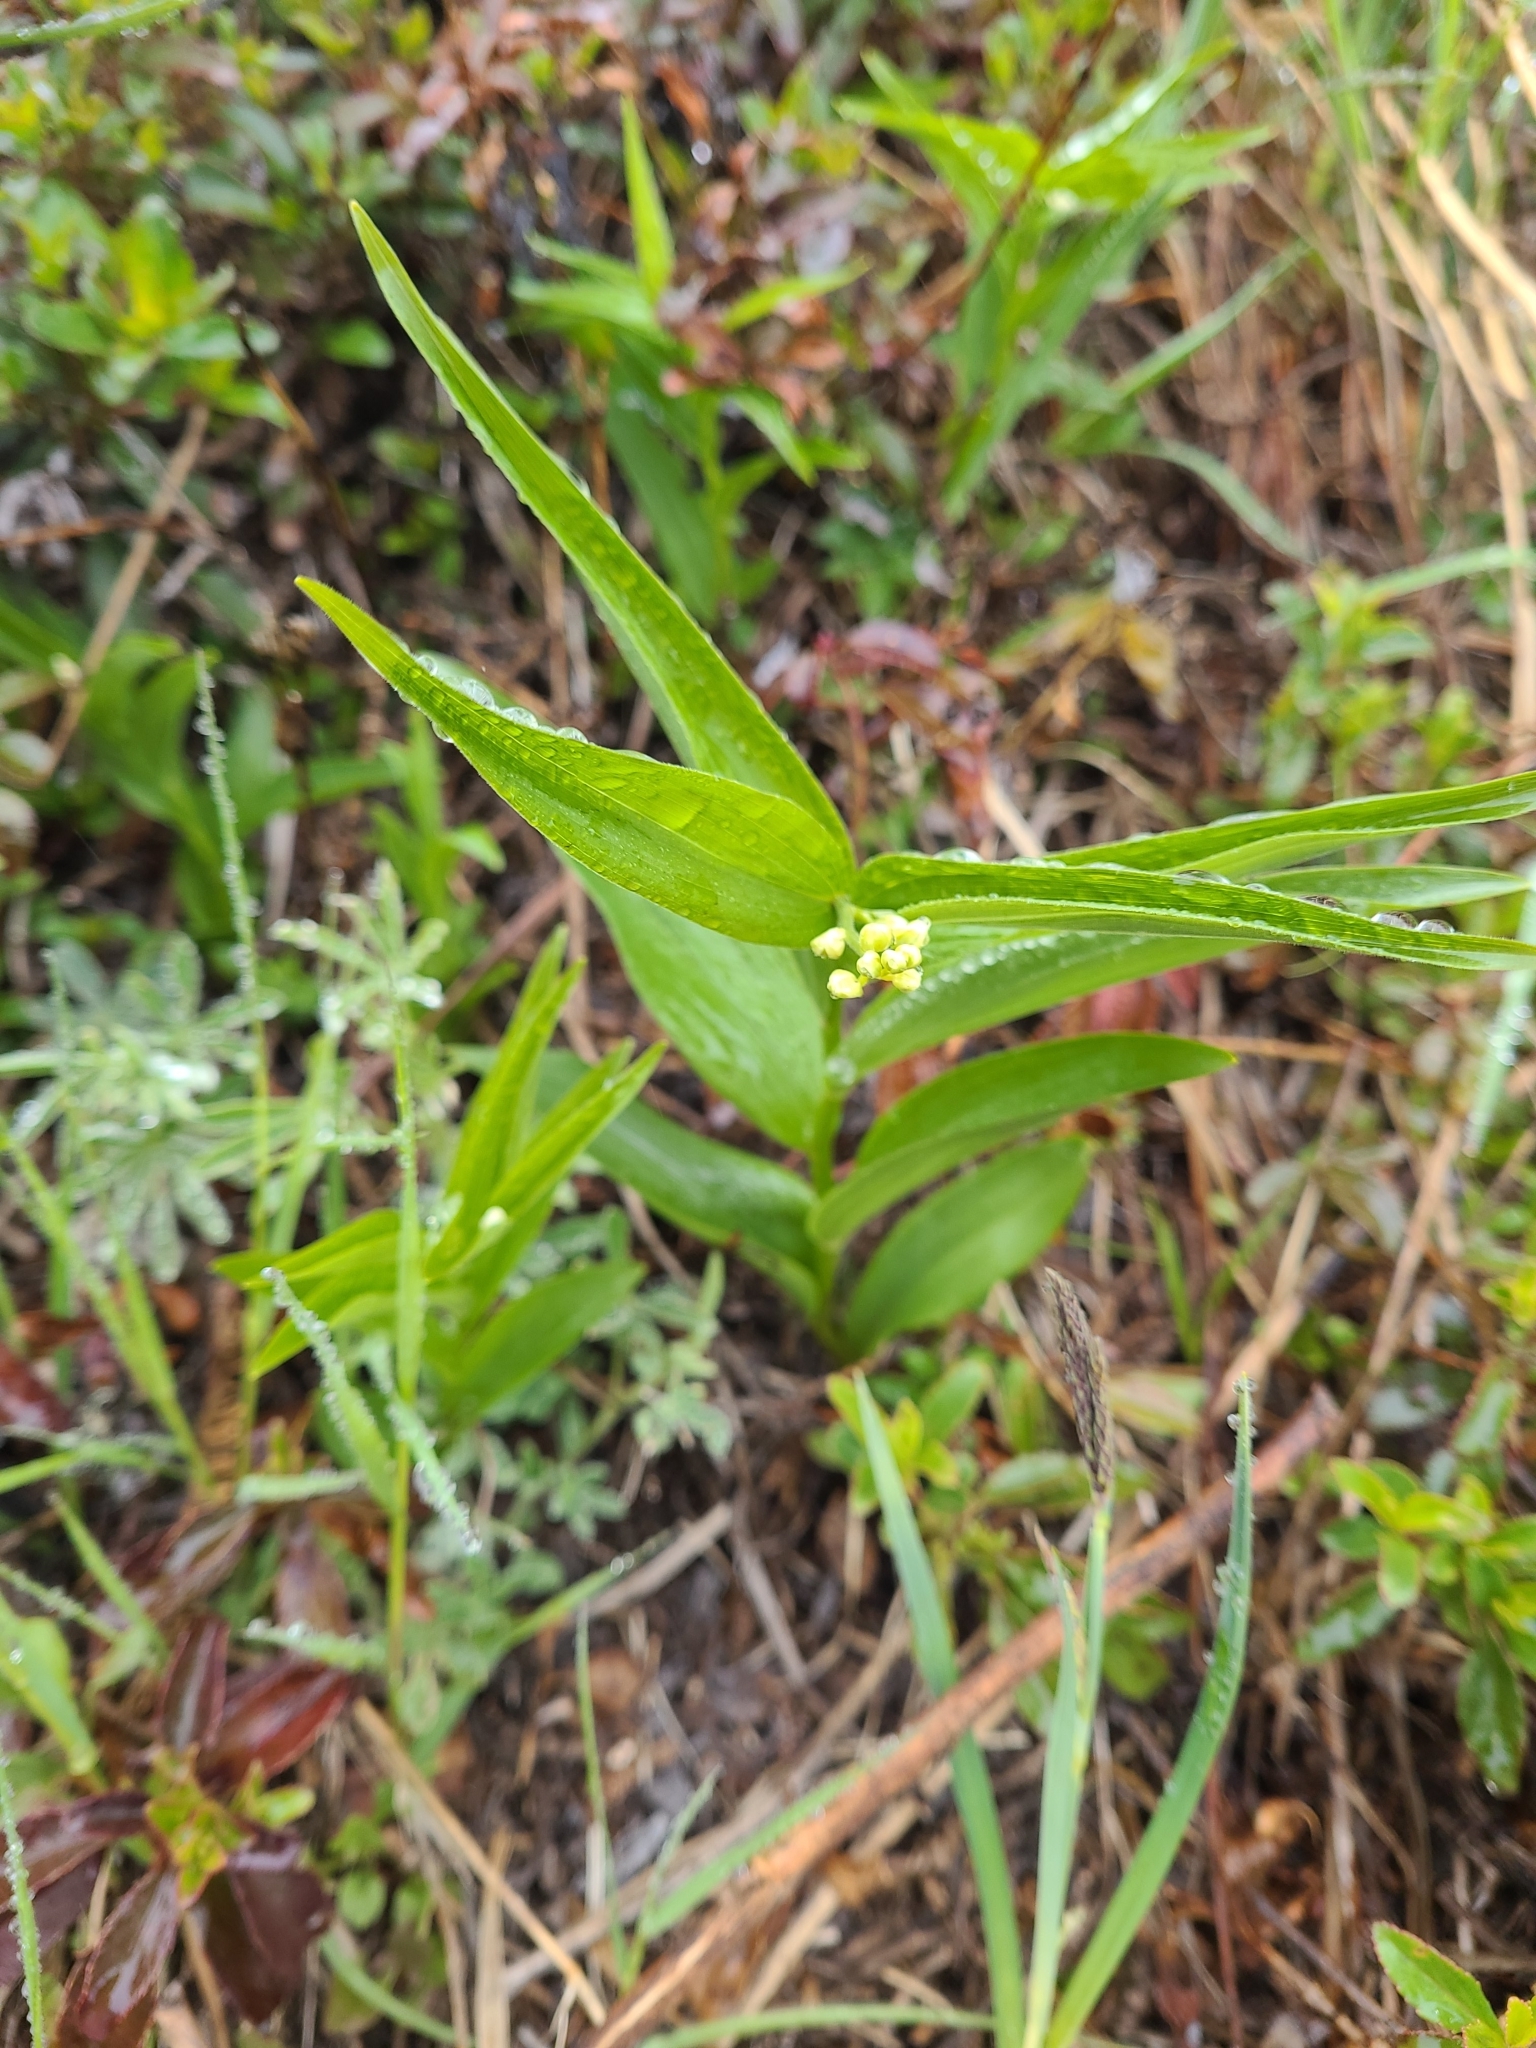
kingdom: Plantae
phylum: Tracheophyta
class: Liliopsida
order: Asparagales
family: Asparagaceae
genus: Maianthemum
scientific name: Maianthemum stellatum
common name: Little false solomon's seal
